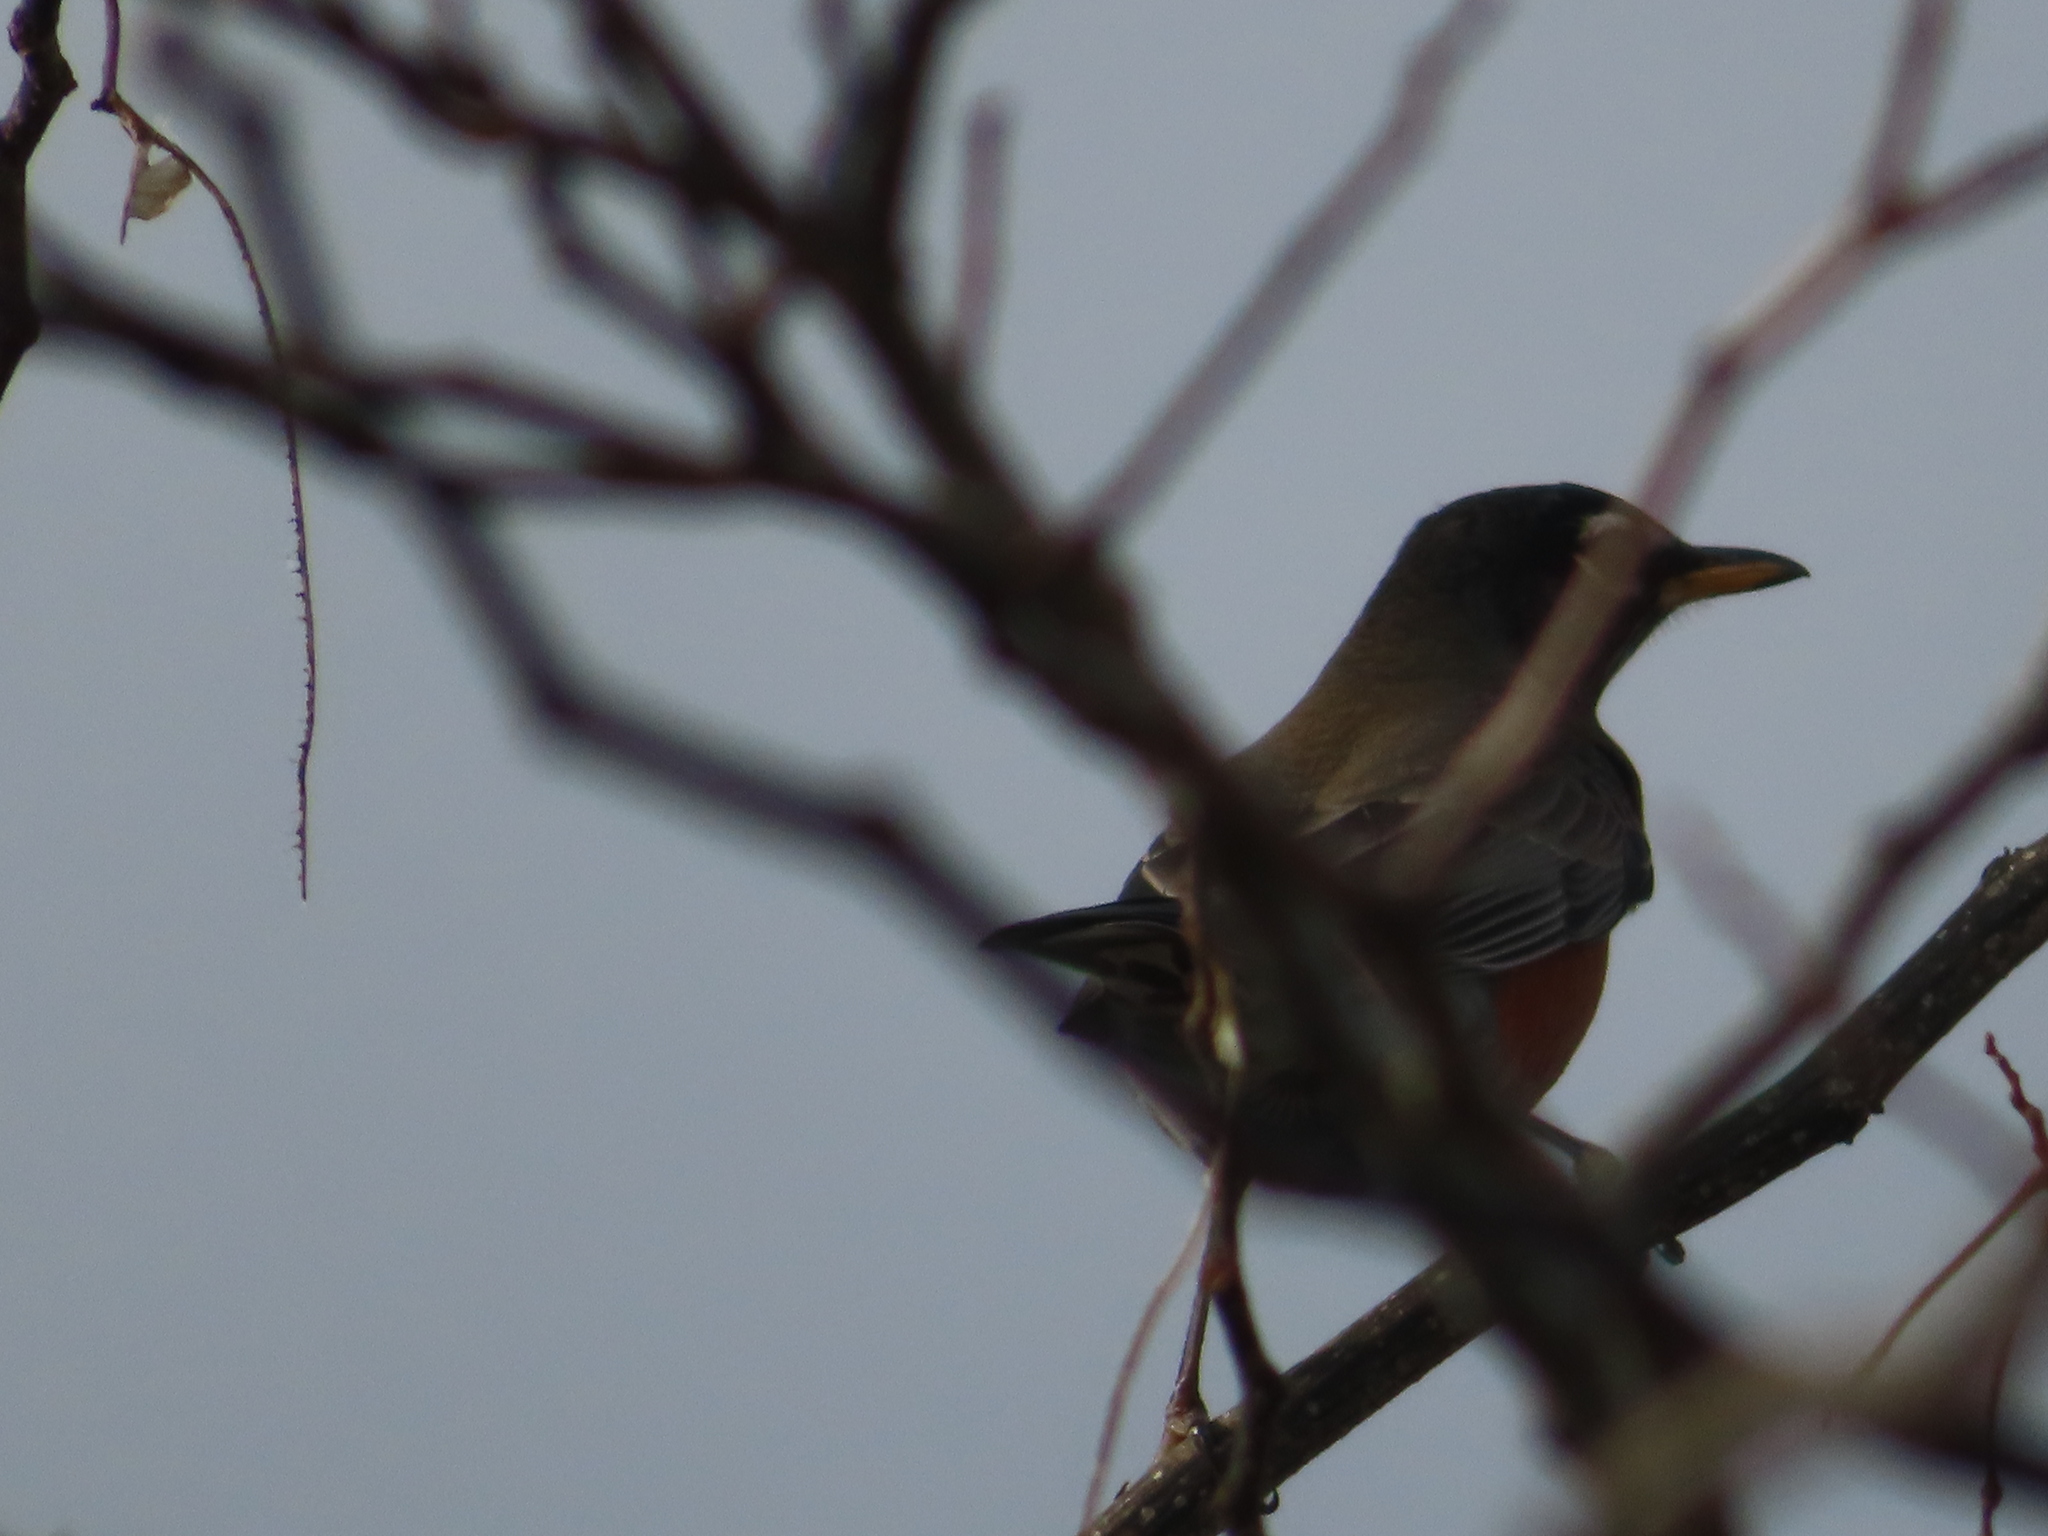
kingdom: Animalia
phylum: Chordata
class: Aves
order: Passeriformes
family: Turdidae
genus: Turdus
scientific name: Turdus migratorius
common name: American robin
